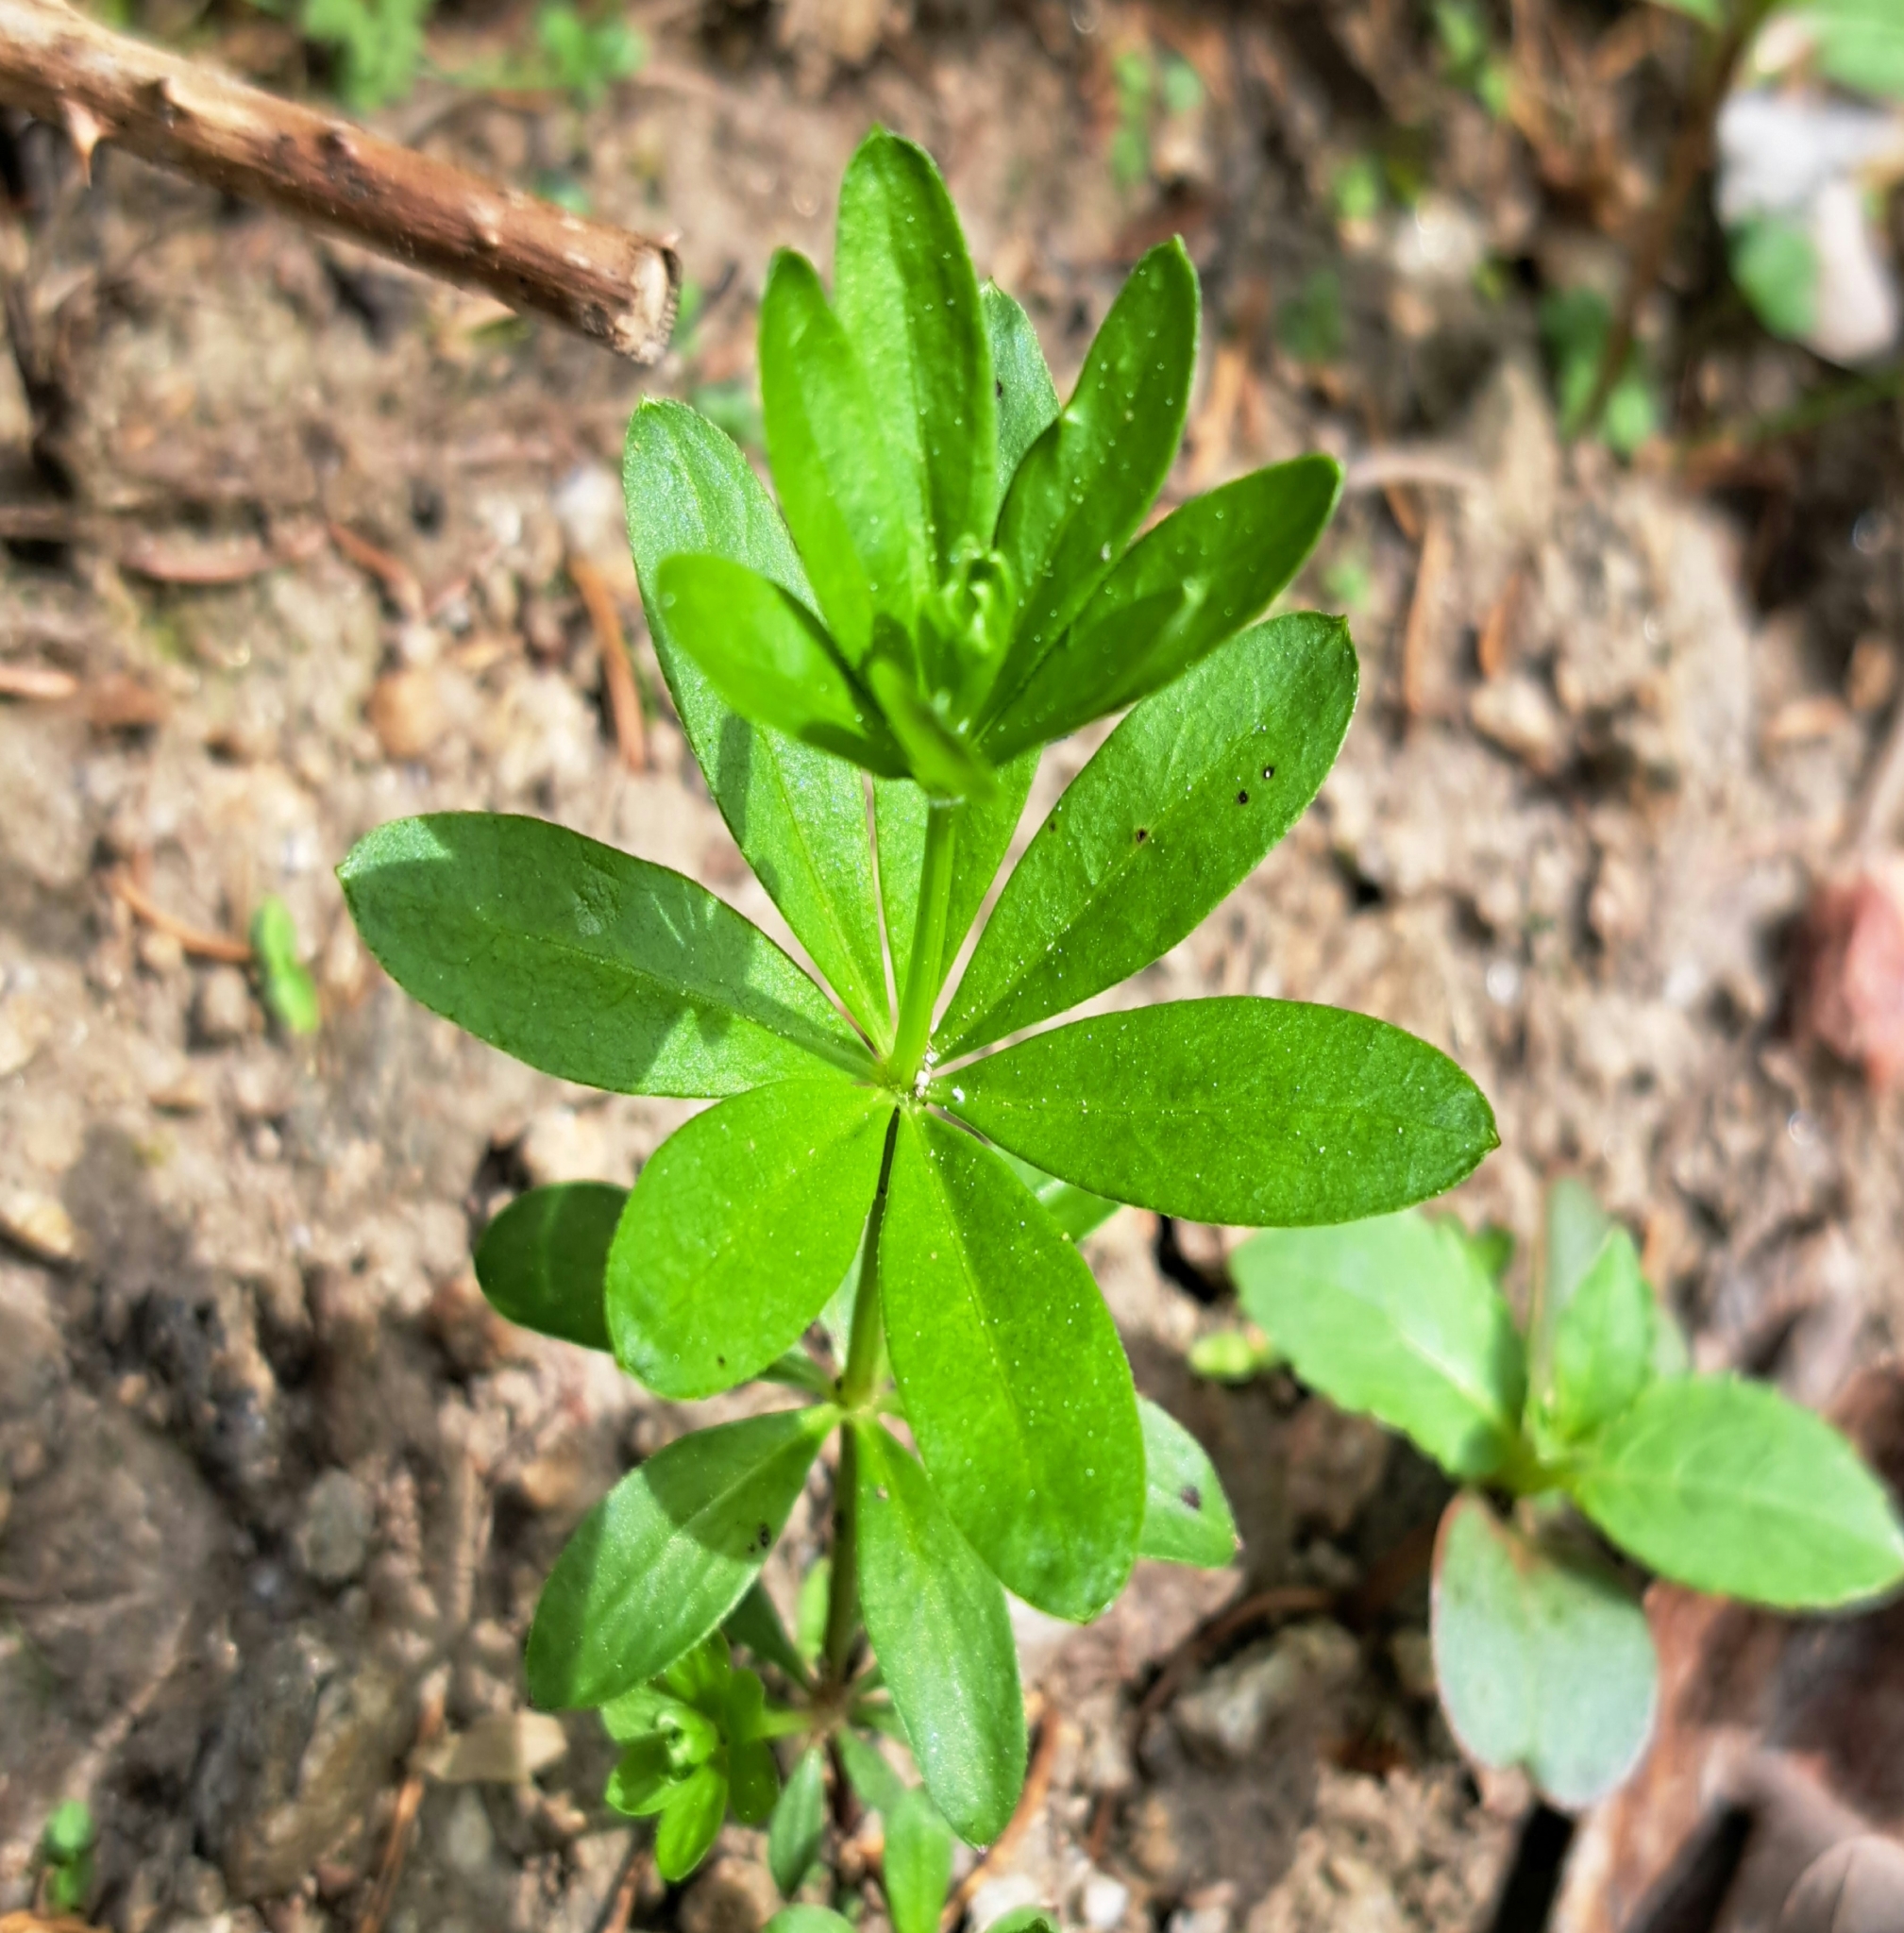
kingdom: Plantae
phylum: Tracheophyta
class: Magnoliopsida
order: Gentianales
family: Rubiaceae
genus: Galium
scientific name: Galium odoratum
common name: Sweet woodruff
